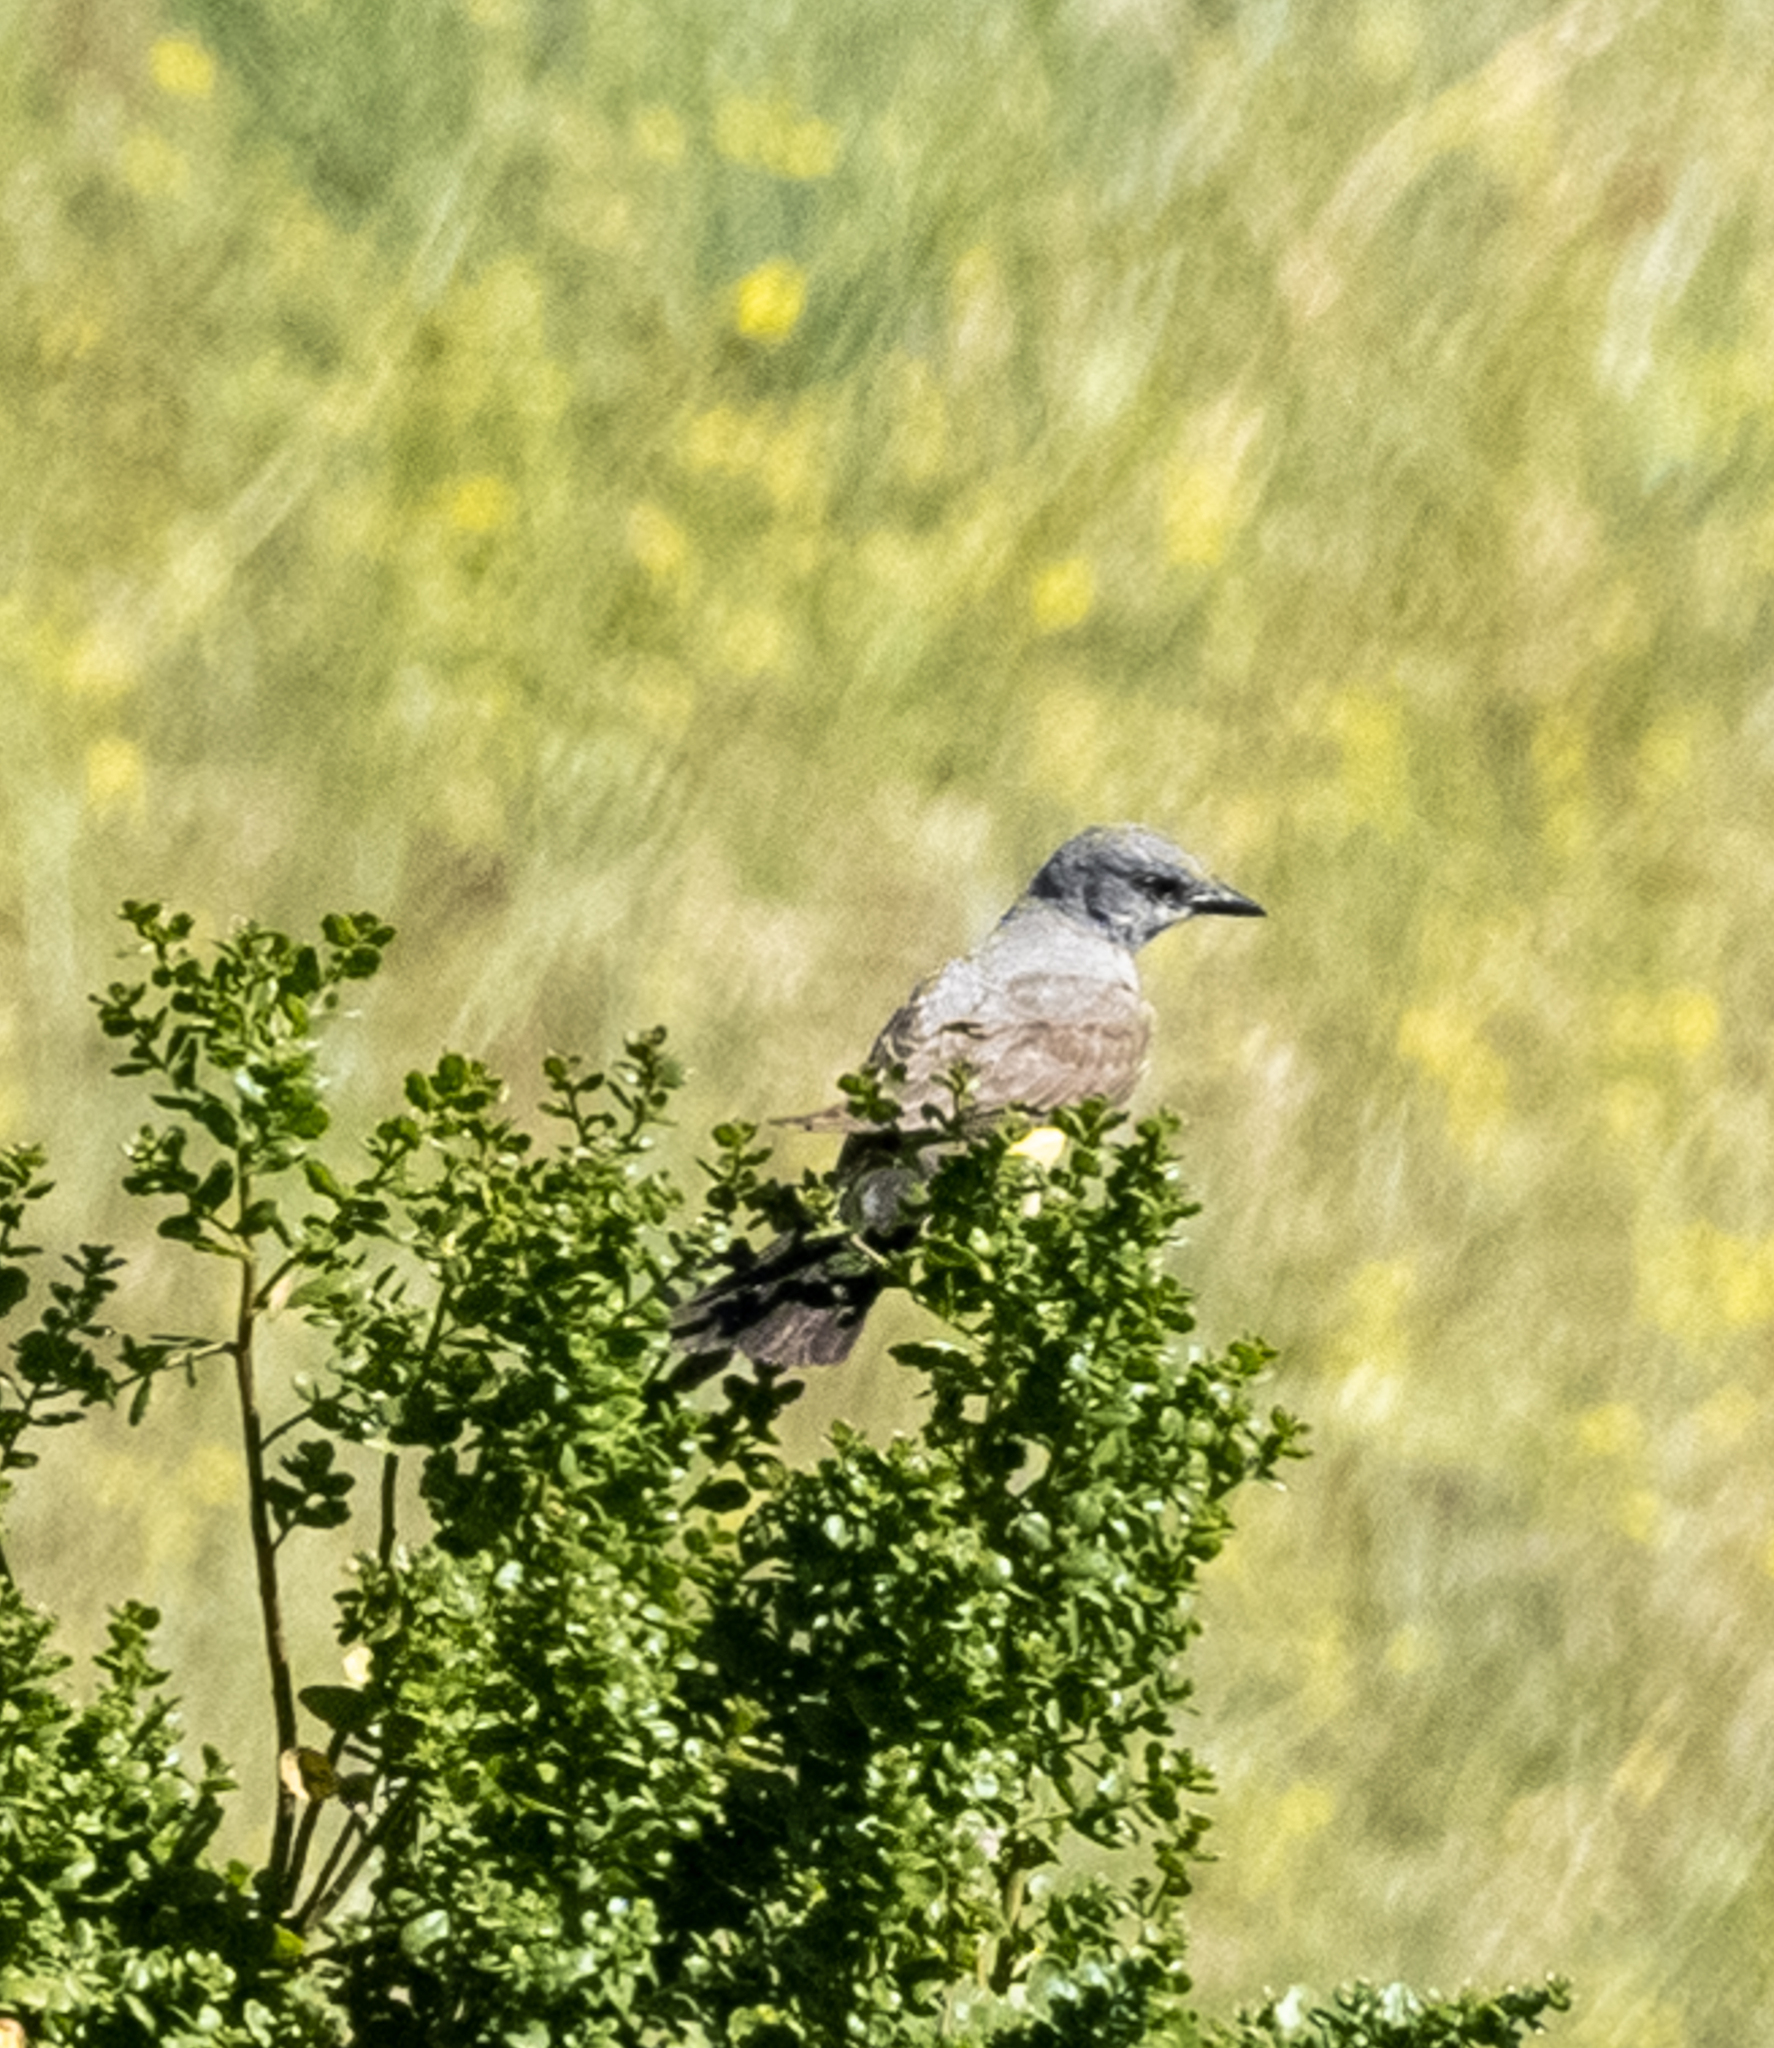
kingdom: Animalia
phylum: Chordata
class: Aves
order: Passeriformes
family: Tyrannidae
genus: Tyrannus
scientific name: Tyrannus verticalis
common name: Western kingbird
